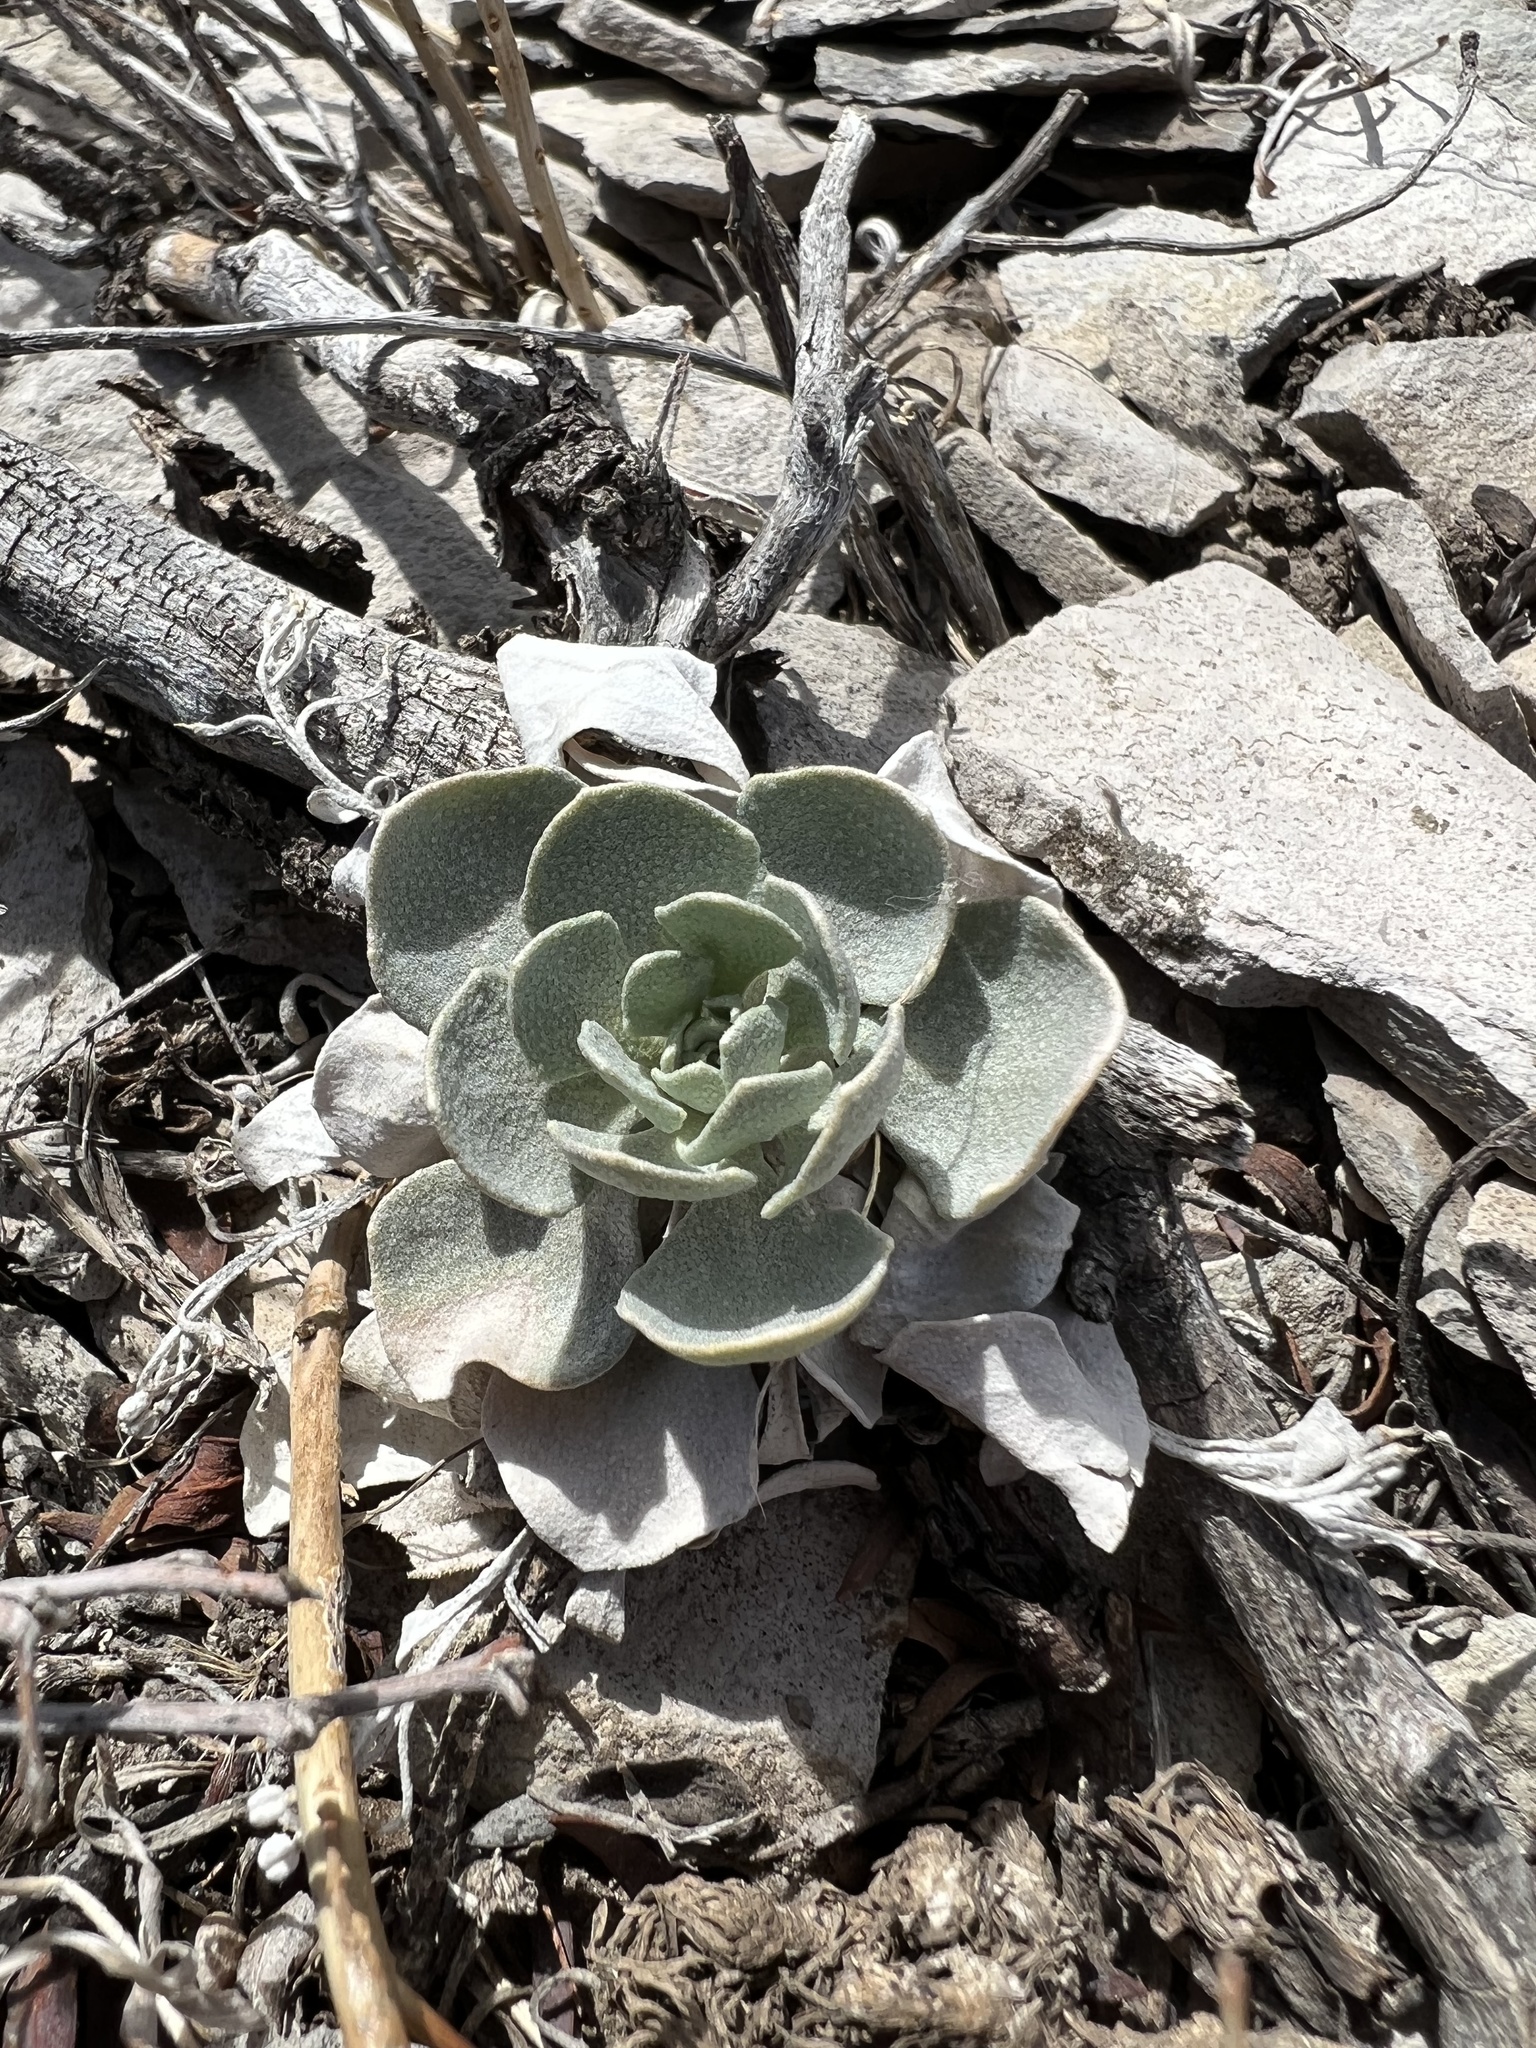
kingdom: Plantae
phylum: Tracheophyta
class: Magnoliopsida
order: Brassicales
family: Brassicaceae
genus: Physaria
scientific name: Physaria bellii
